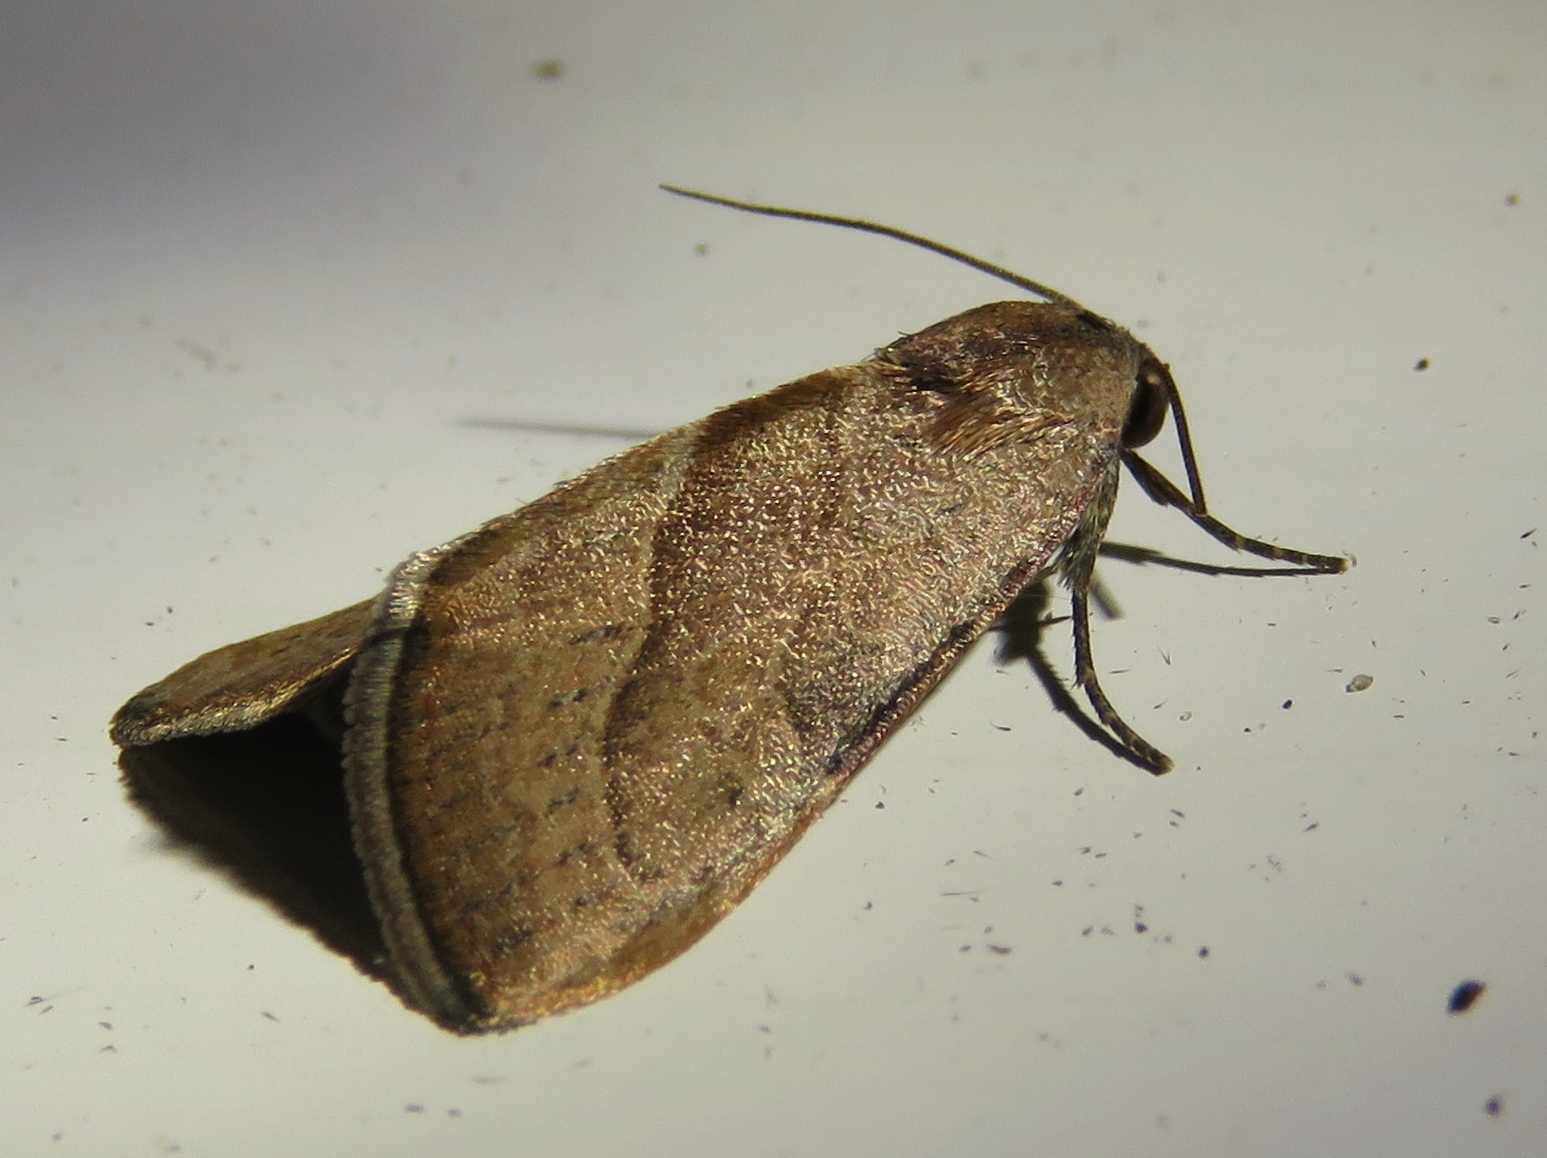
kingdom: Animalia
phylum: Arthropoda
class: Insecta
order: Lepidoptera
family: Noctuidae
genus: Galgula
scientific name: Galgula partita
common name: Wedgeling
